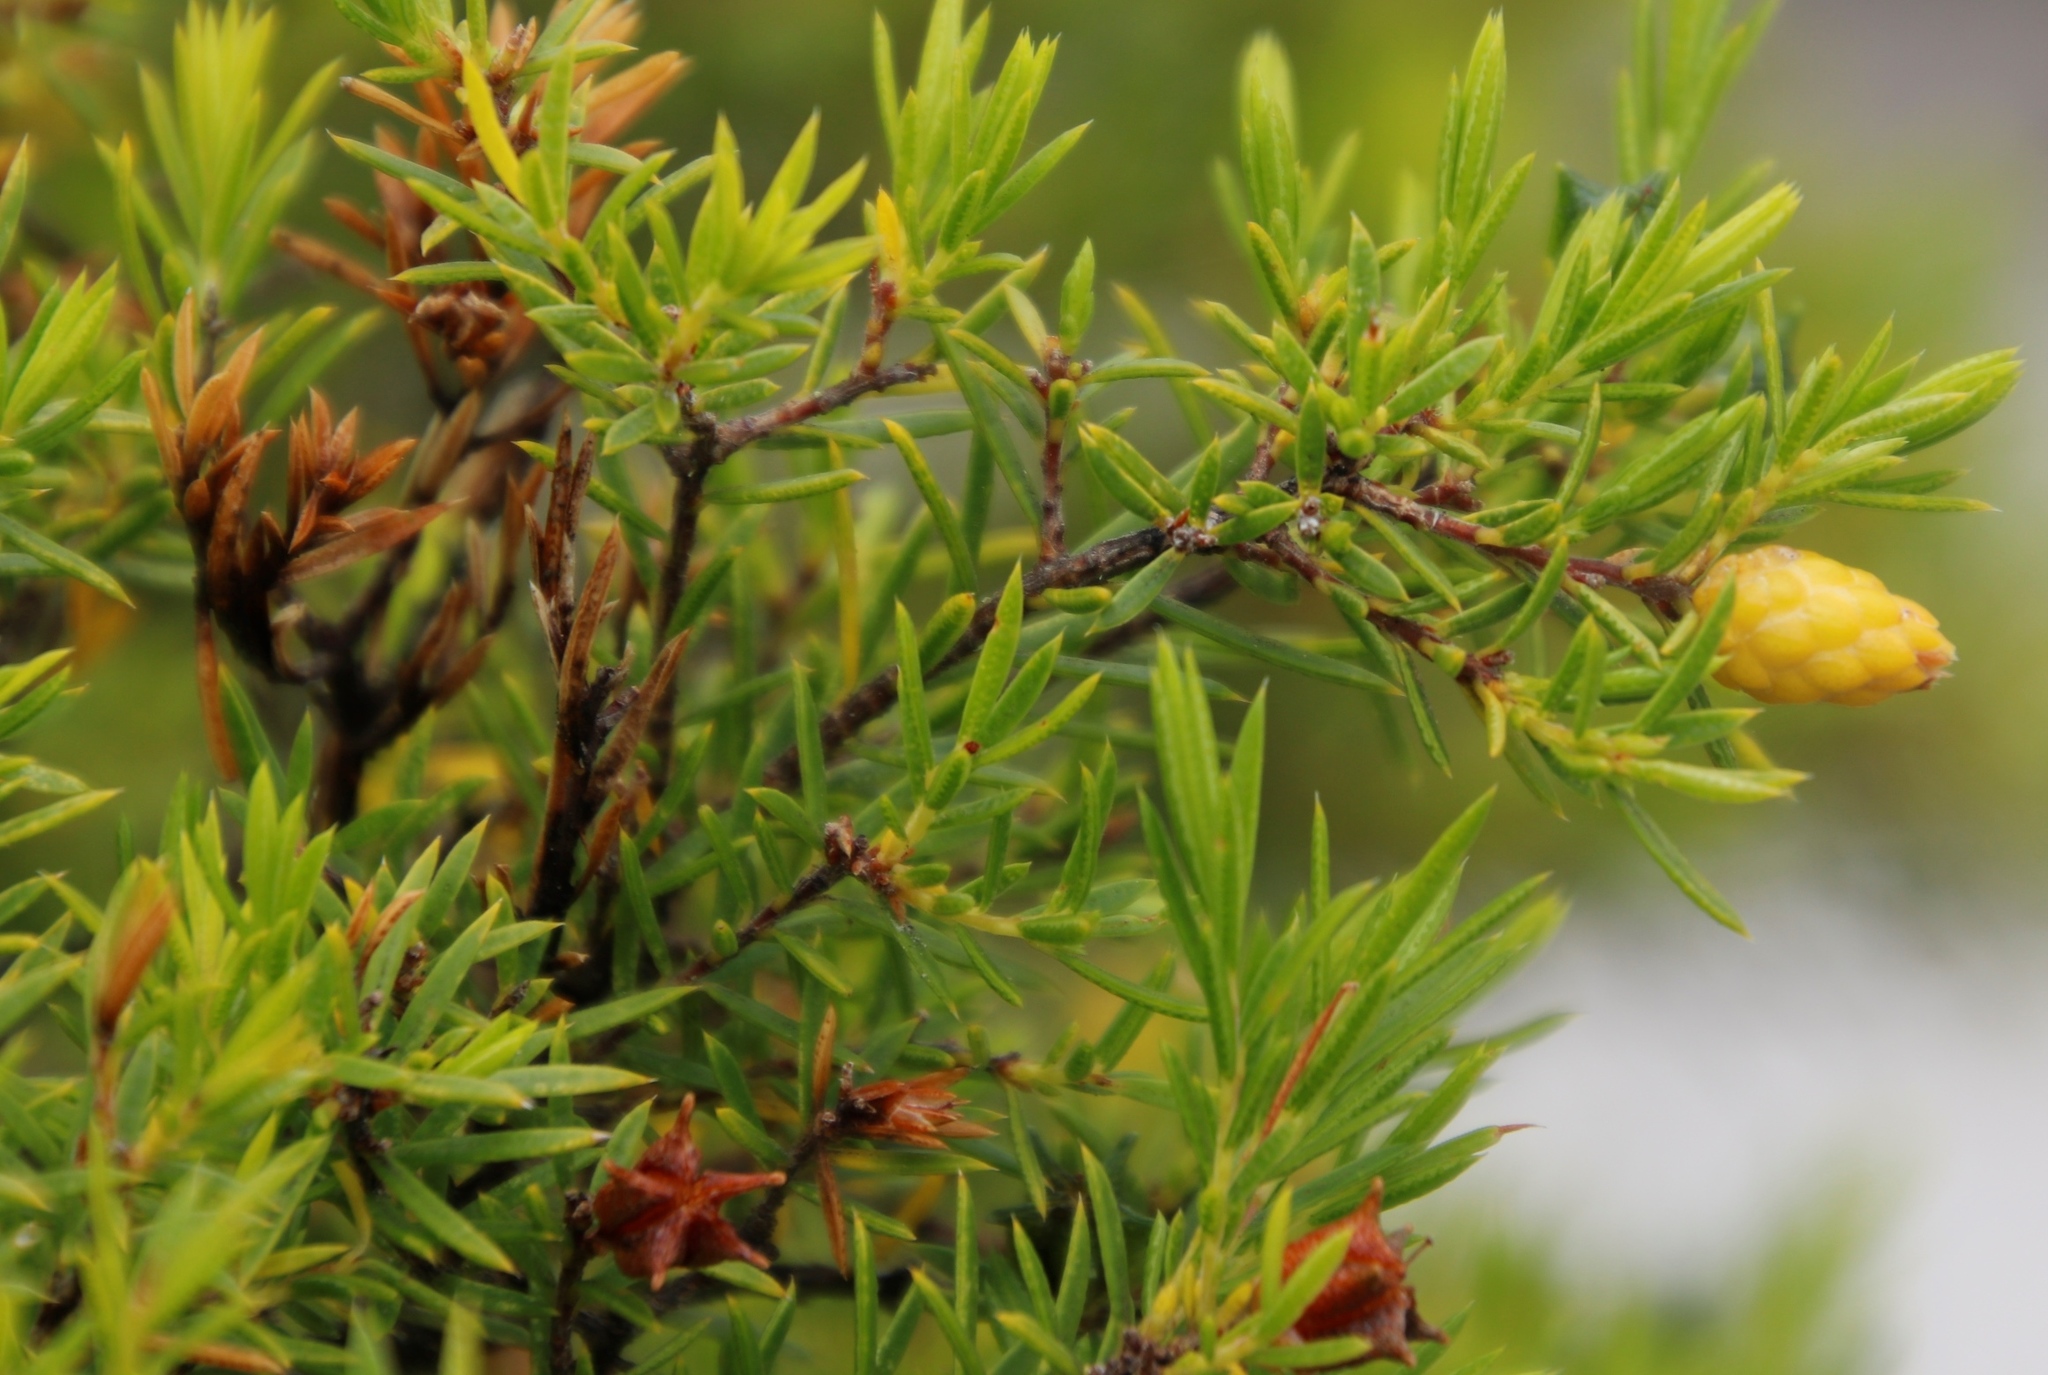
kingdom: Plantae
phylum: Tracheophyta
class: Magnoliopsida
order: Sapindales
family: Rutaceae
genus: Coleonema
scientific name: Coleonema album
